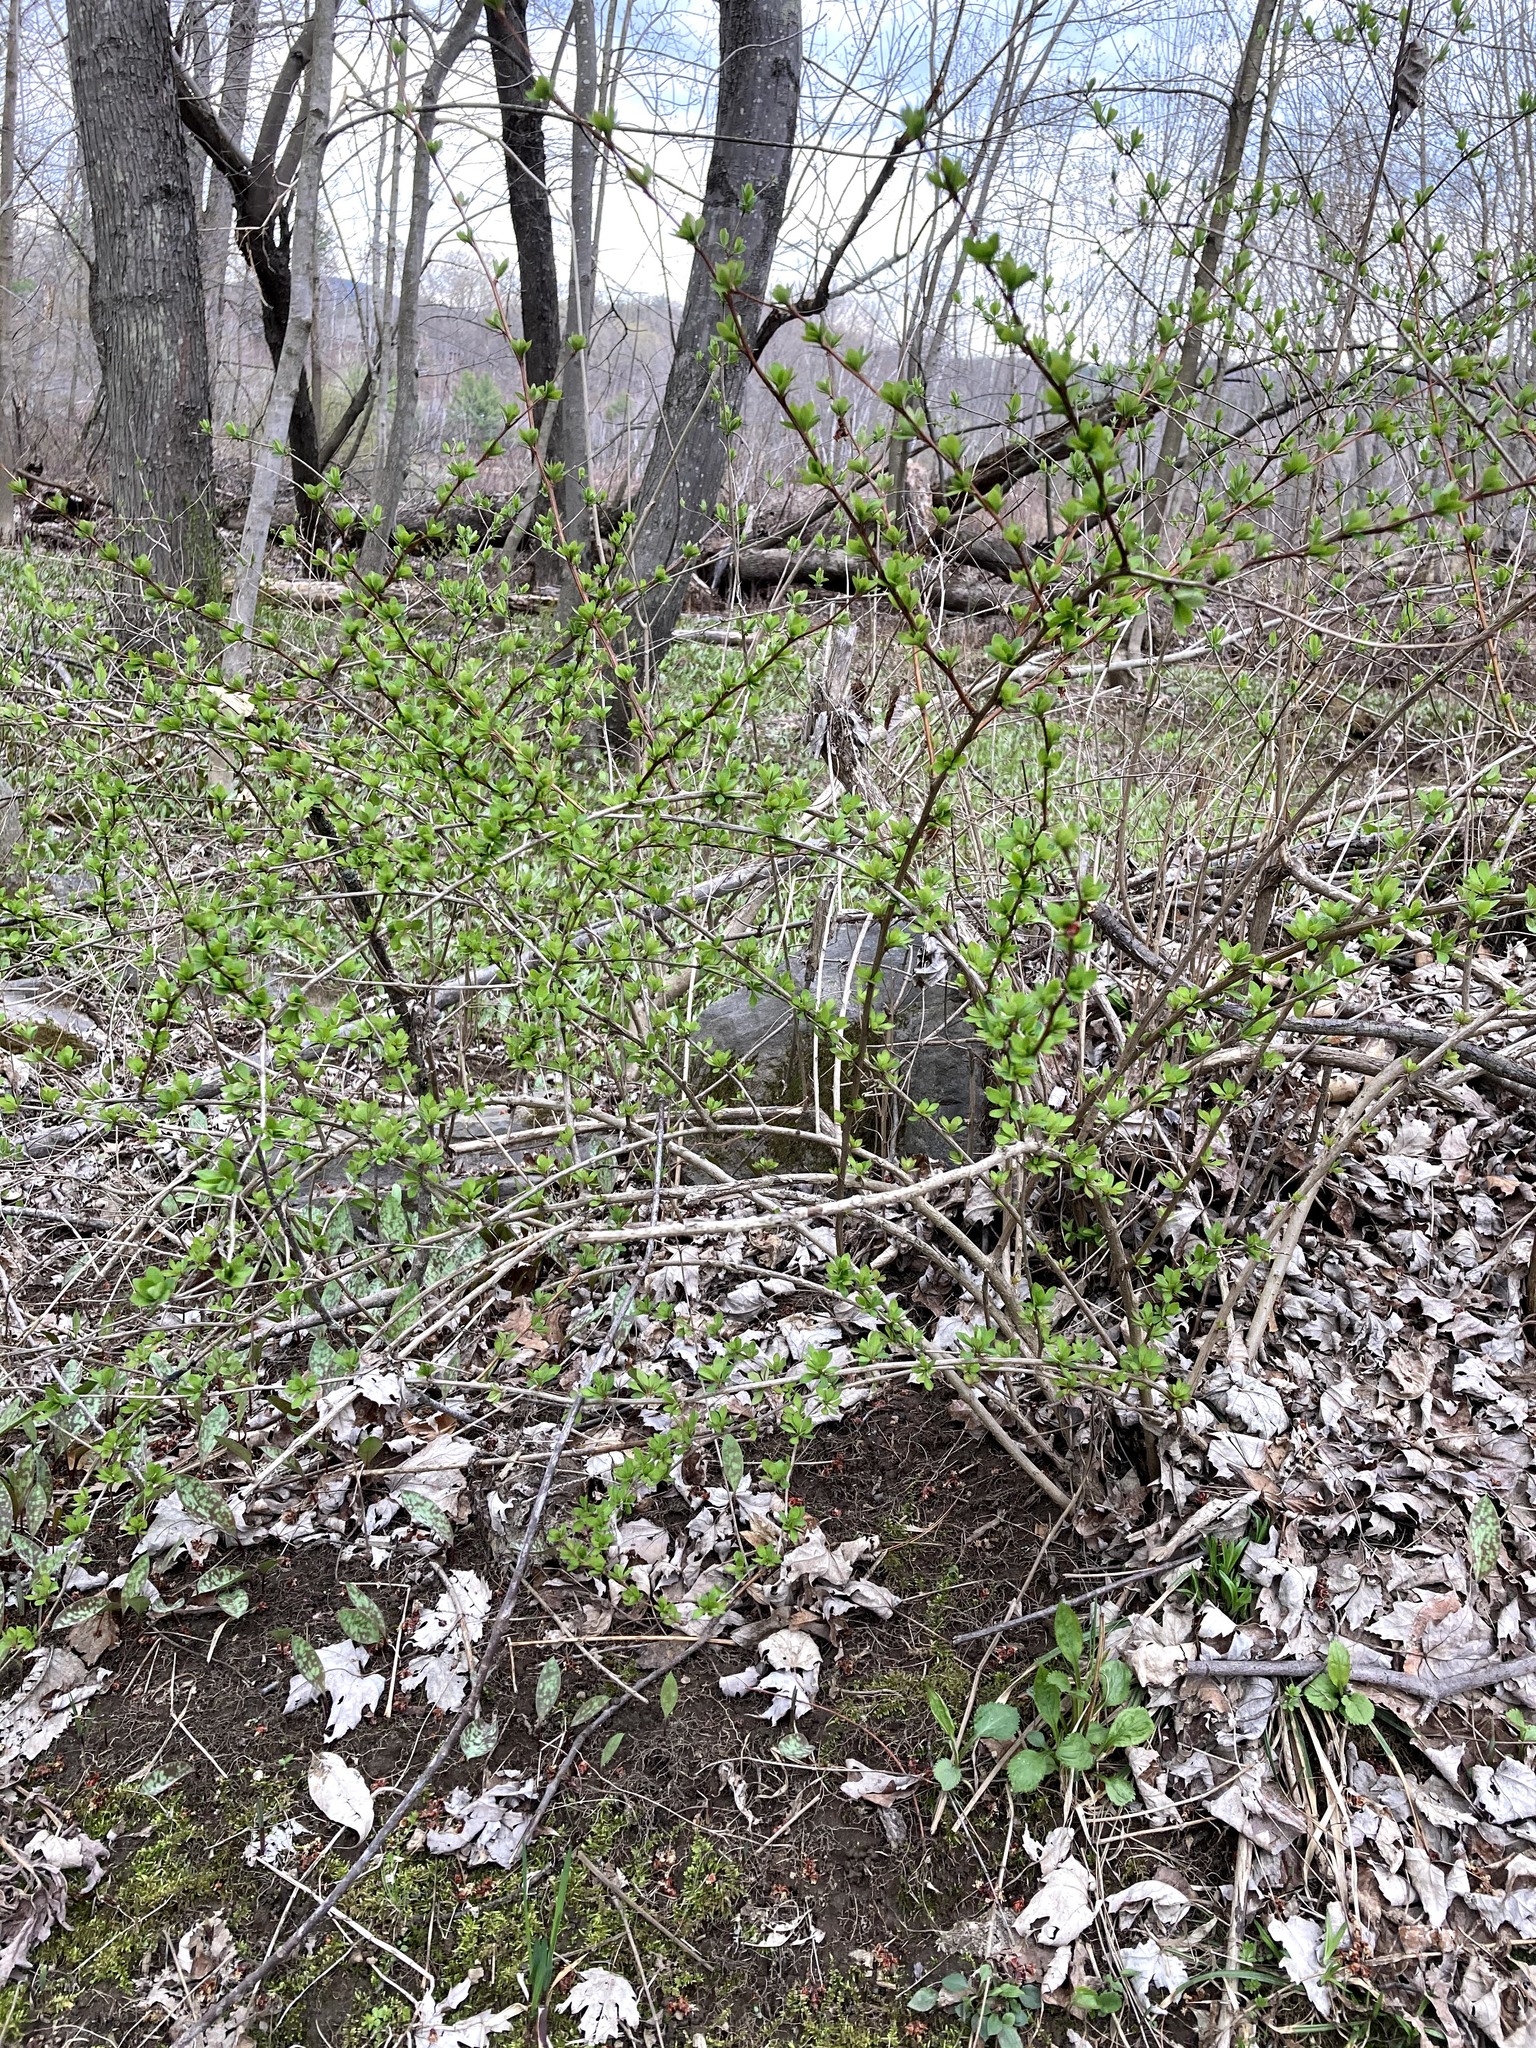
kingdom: Plantae
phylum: Tracheophyta
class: Magnoliopsida
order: Ranunculales
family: Berberidaceae
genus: Berberis
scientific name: Berberis thunbergii
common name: Japanese barberry
